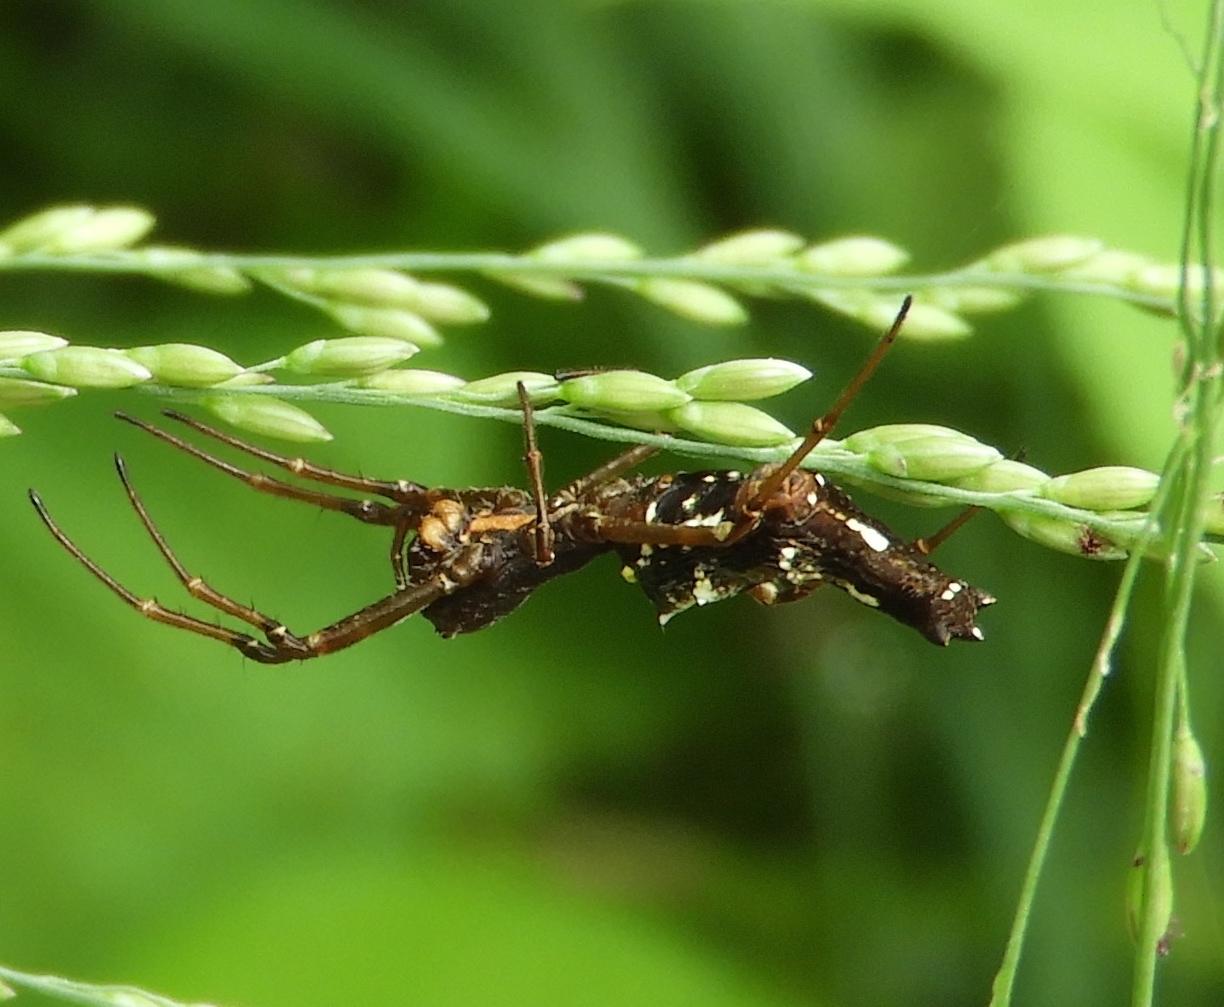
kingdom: Animalia
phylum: Arthropoda
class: Arachnida
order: Araneae
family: Araneidae
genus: Edricus
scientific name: Edricus productus
